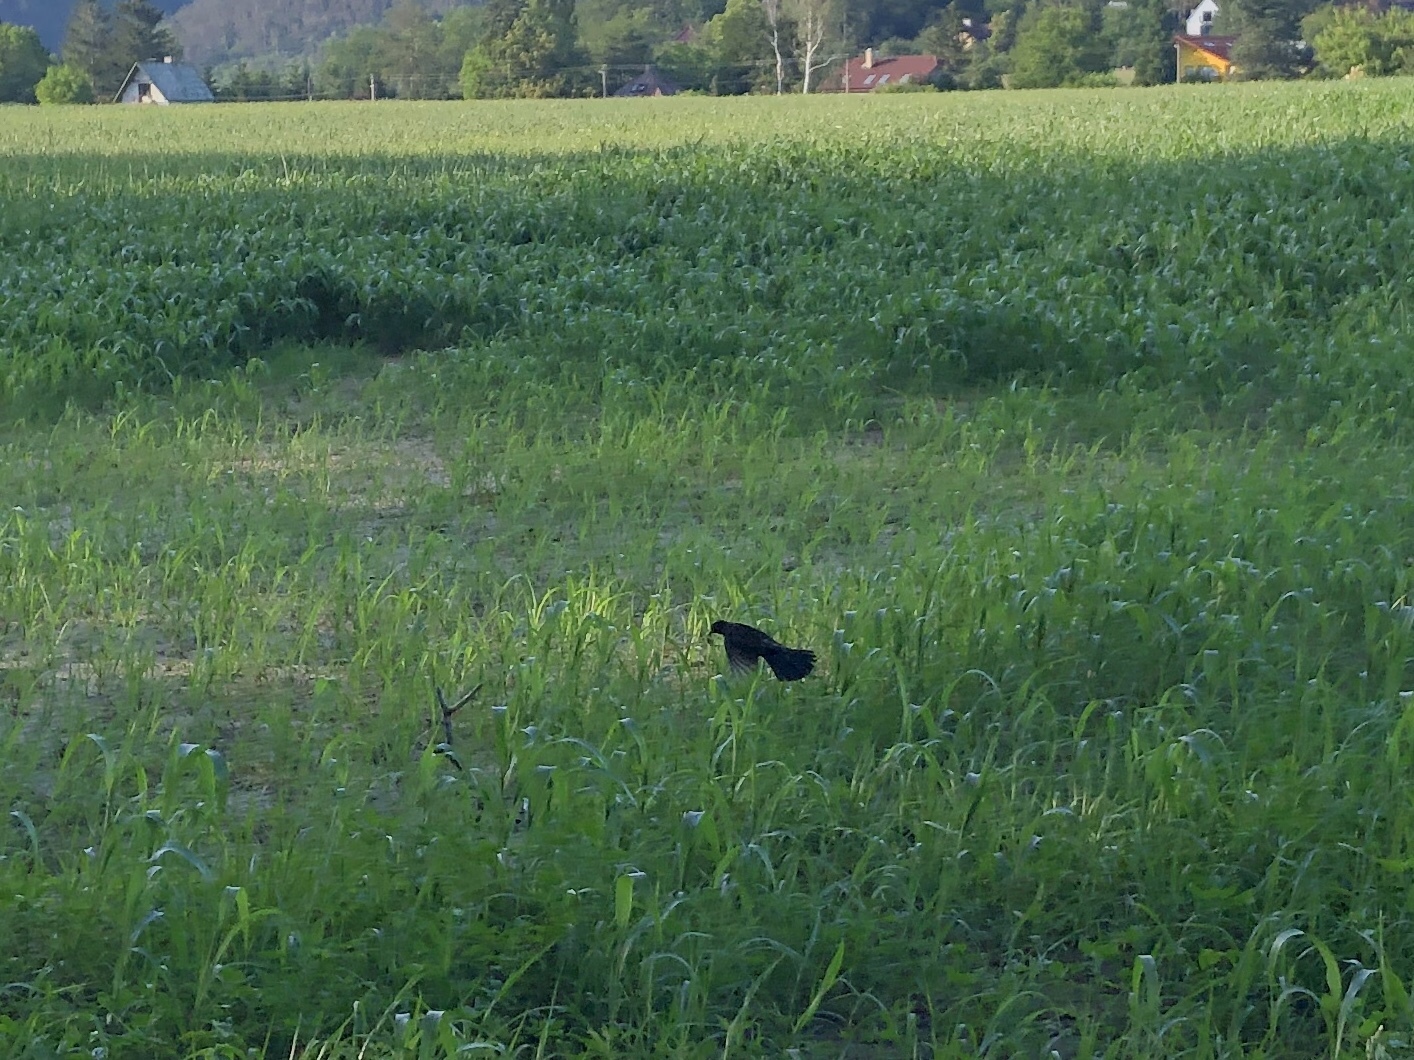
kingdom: Animalia
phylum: Chordata
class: Aves
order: Passeriformes
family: Turdidae
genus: Turdus
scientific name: Turdus merula
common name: Common blackbird
